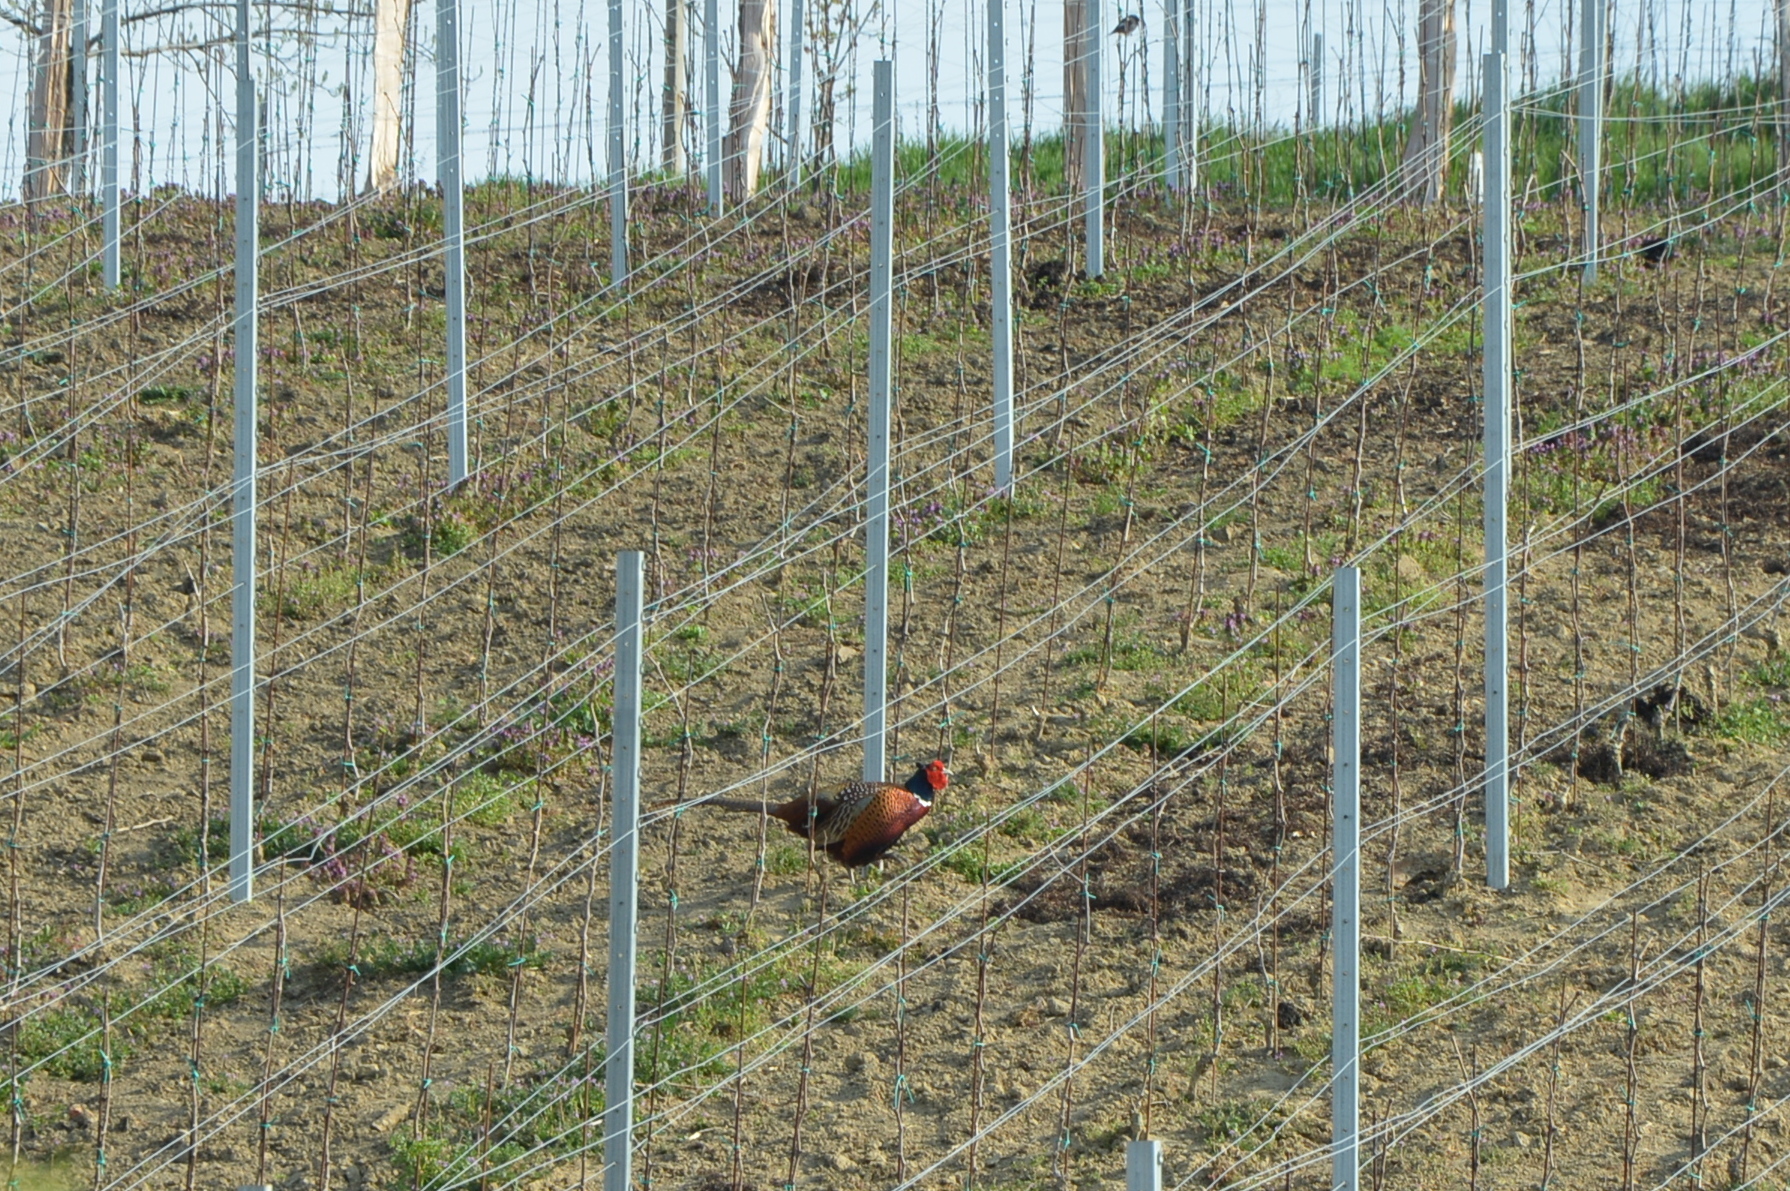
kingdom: Animalia
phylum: Chordata
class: Aves
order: Galliformes
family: Phasianidae
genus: Phasianus
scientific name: Phasianus colchicus
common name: Common pheasant
